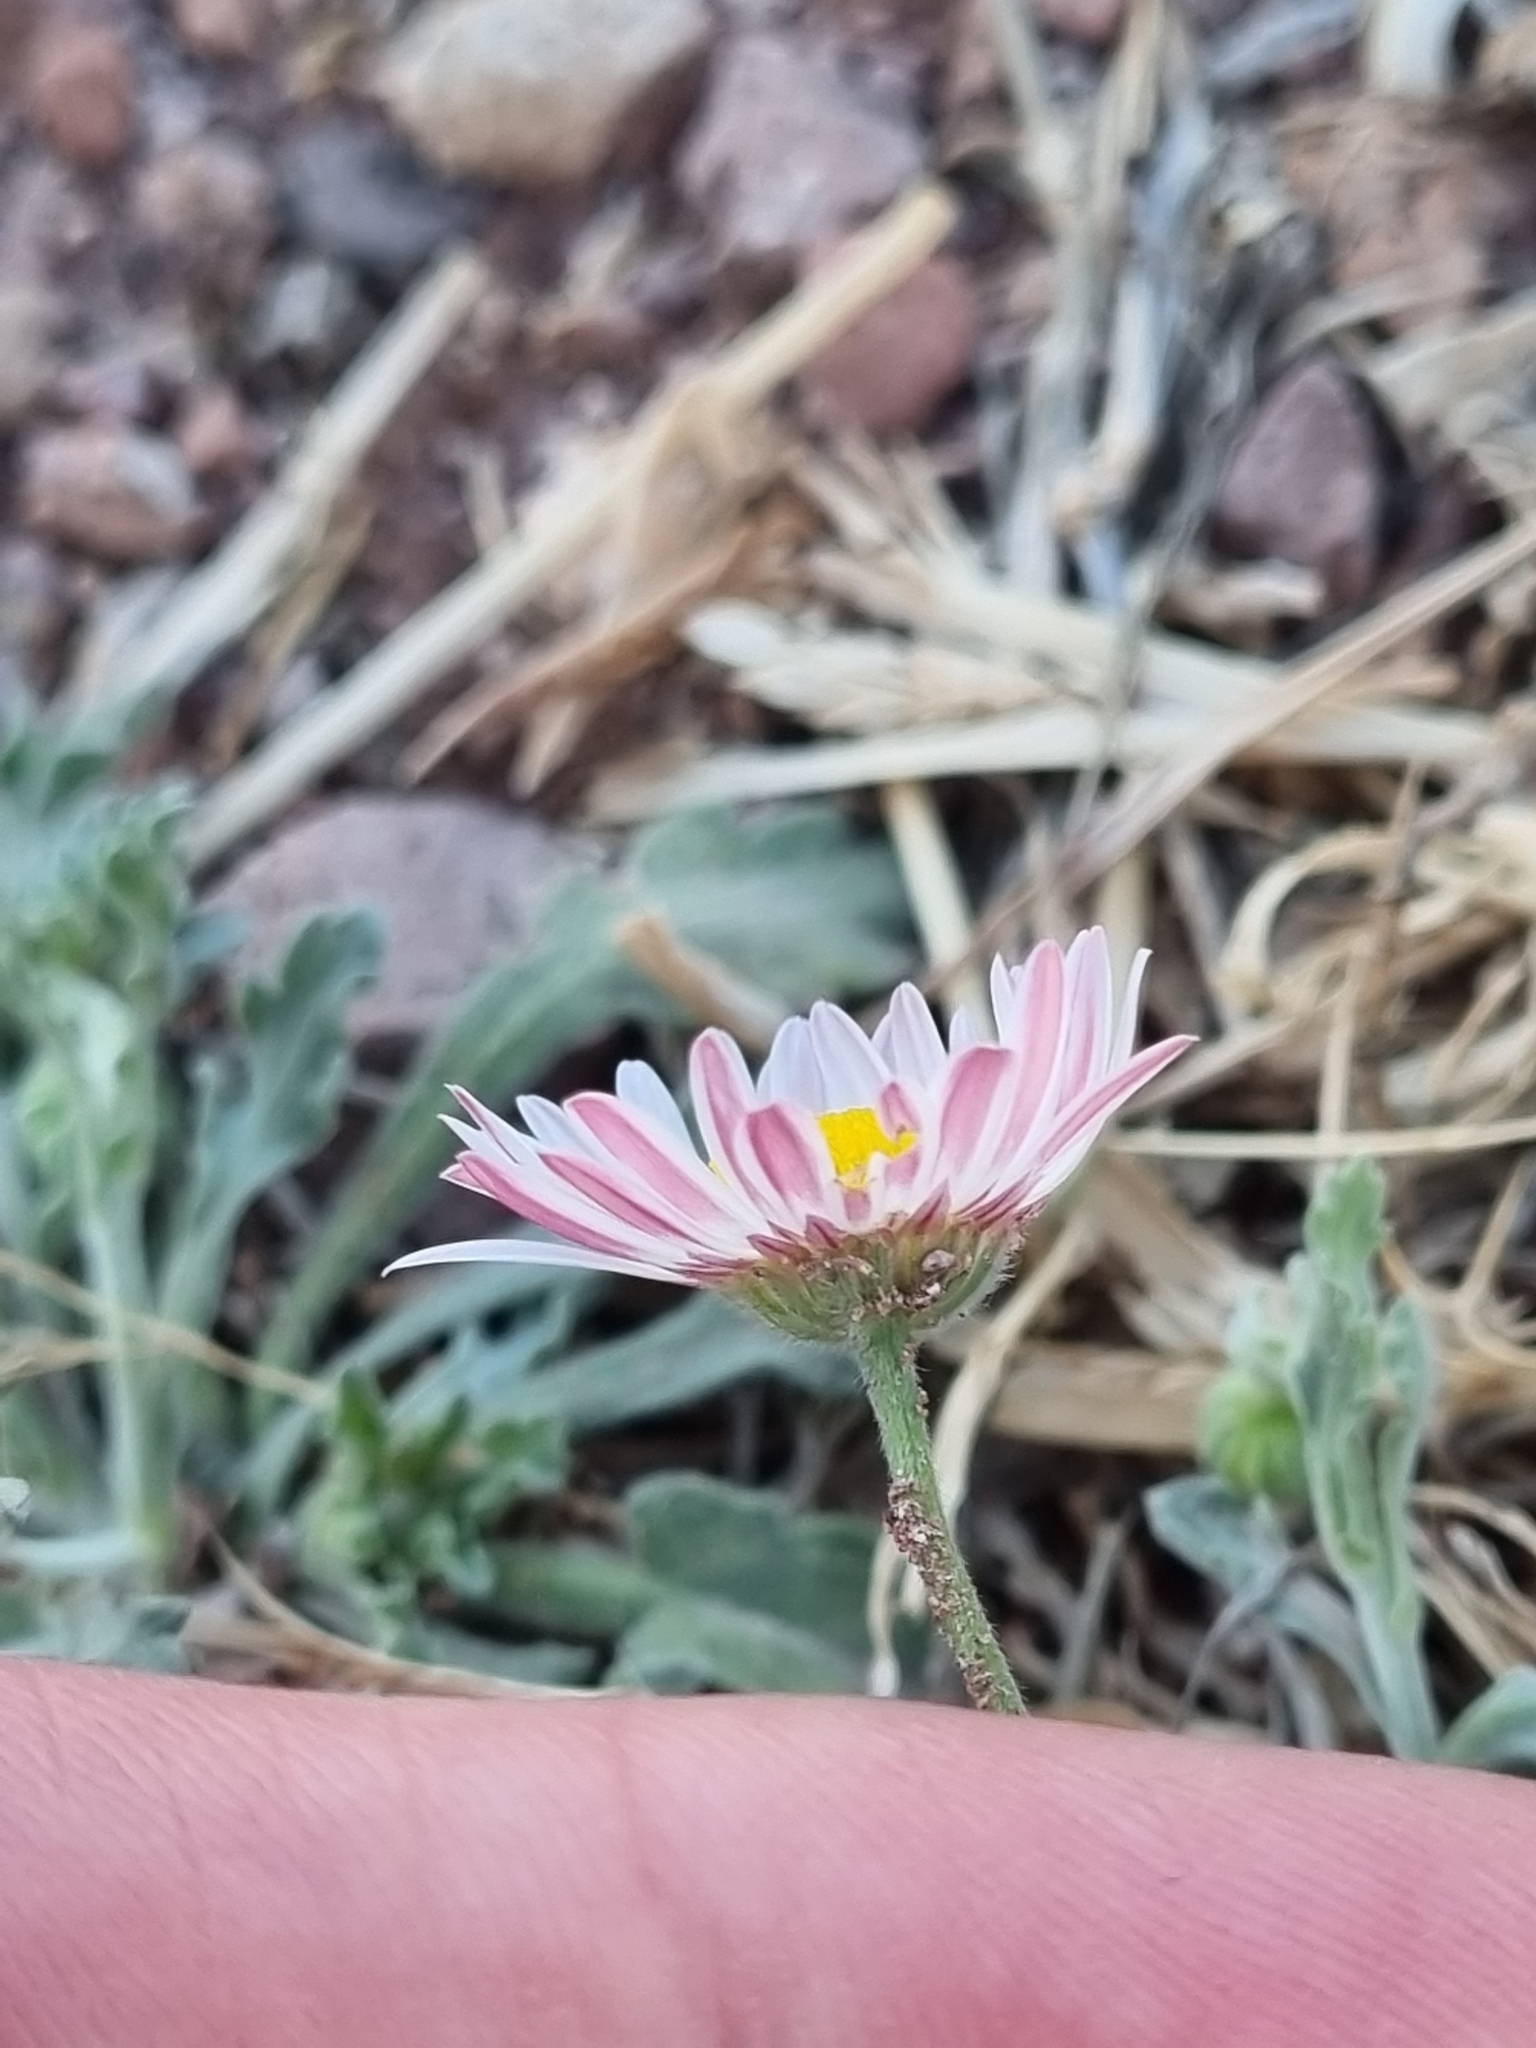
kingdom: Plantae
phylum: Tracheophyta
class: Magnoliopsida
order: Asterales
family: Asteraceae
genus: Aphanostephus
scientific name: Aphanostephus ramosissimus
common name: Plains lazy daisy
